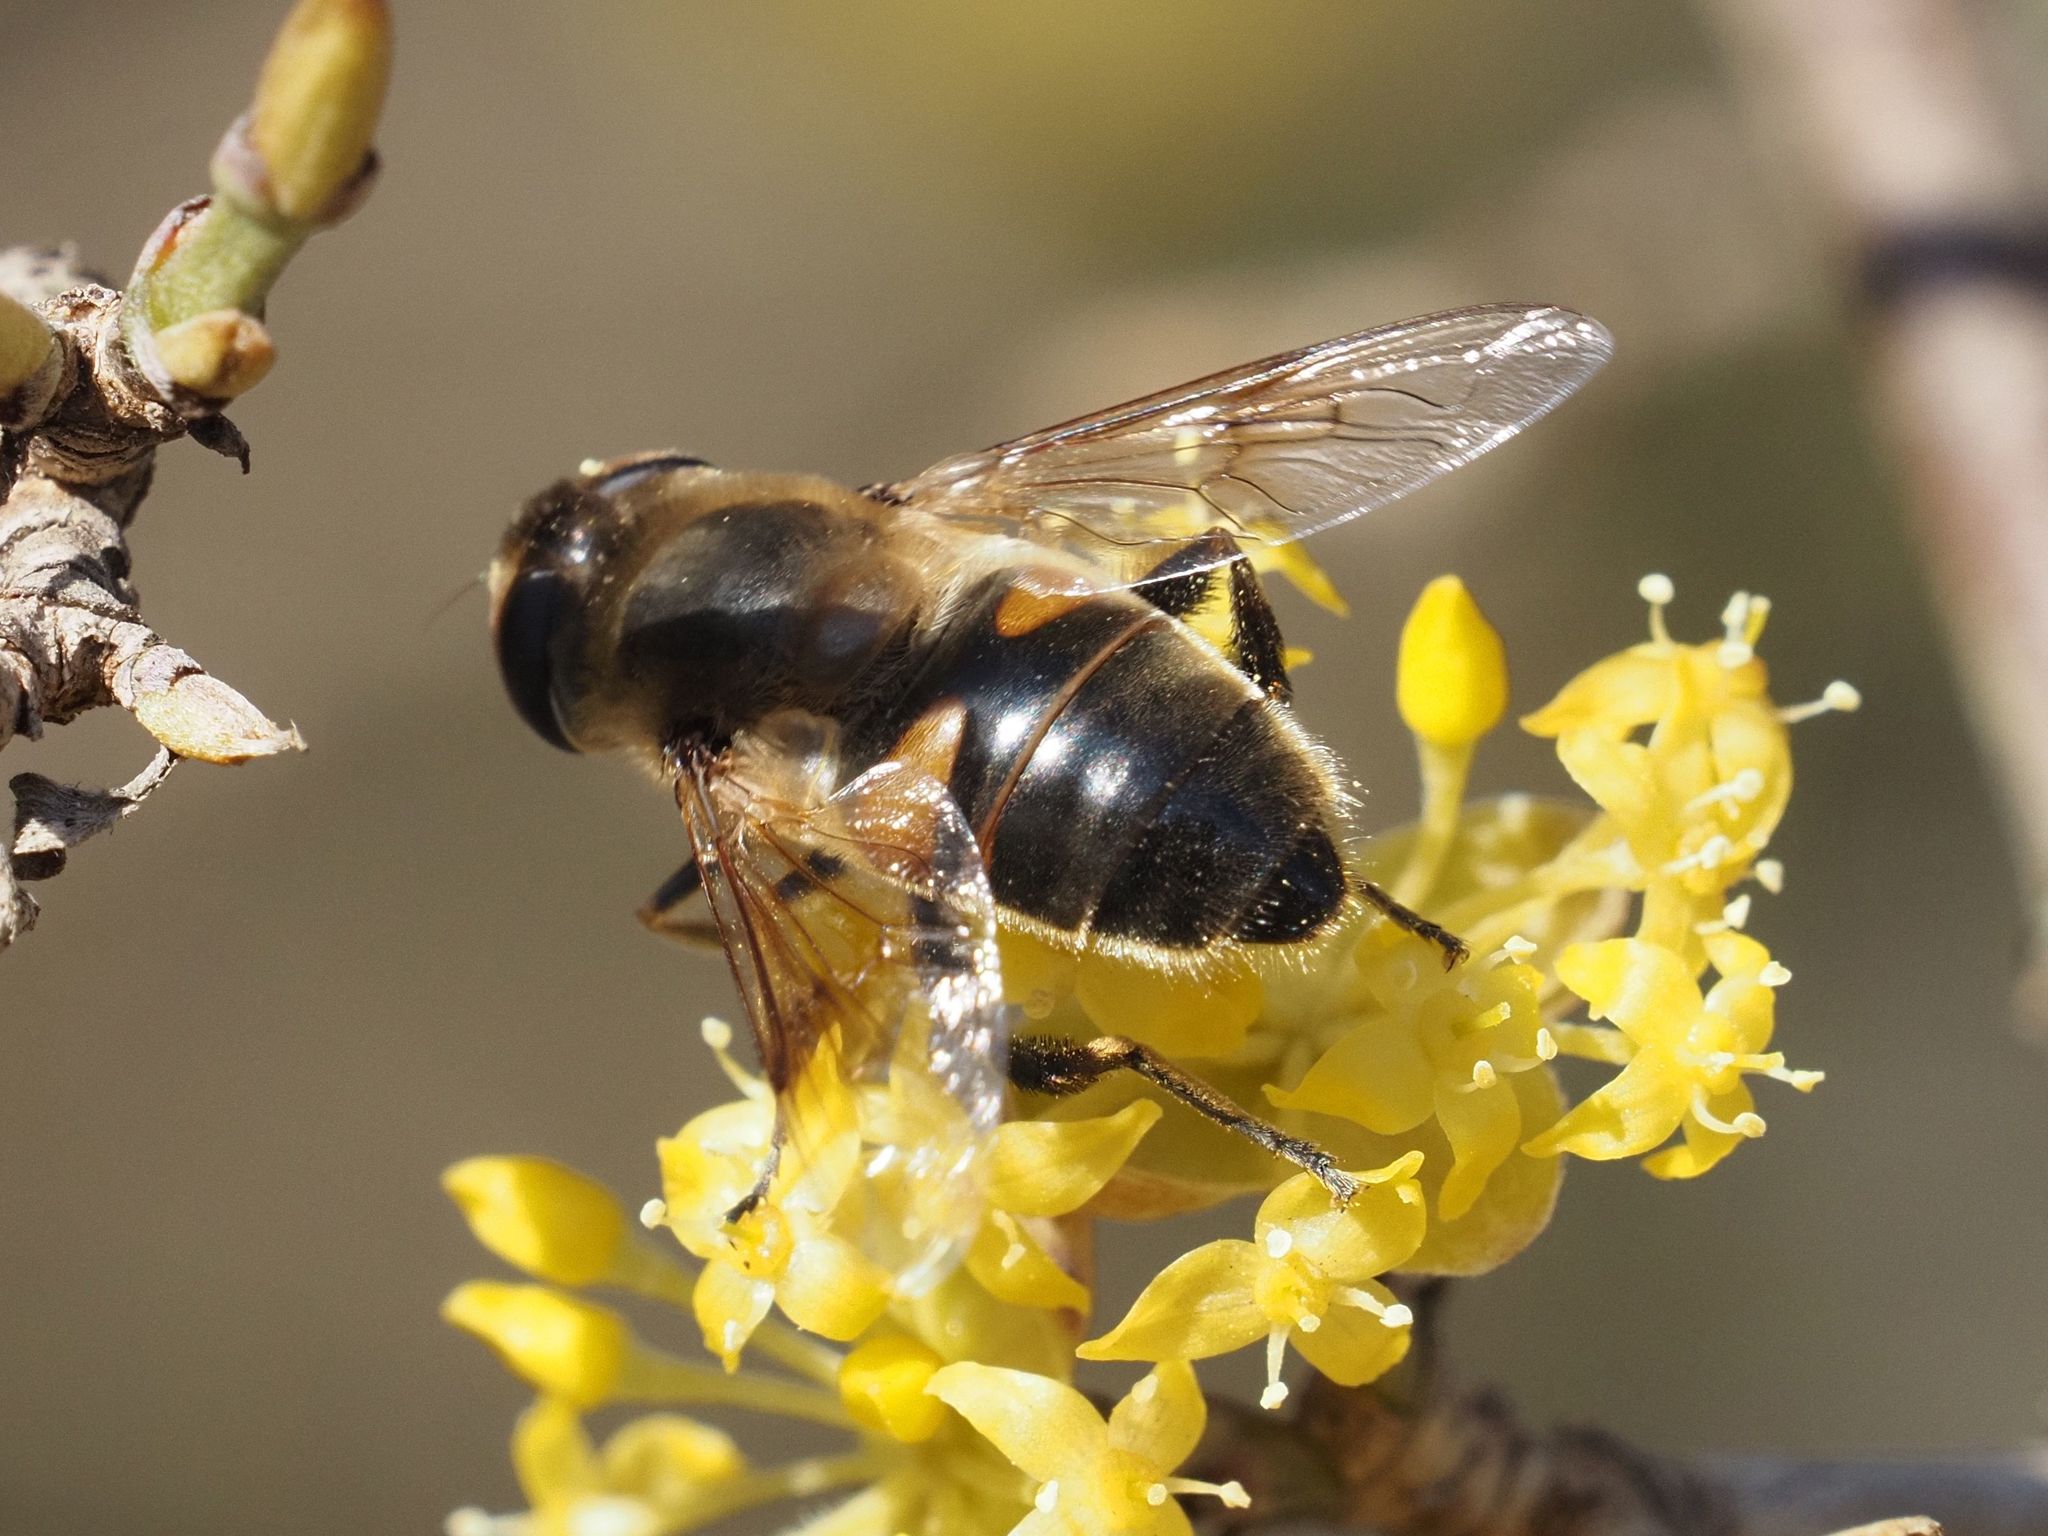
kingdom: Animalia
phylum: Arthropoda
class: Insecta
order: Diptera
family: Syrphidae
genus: Eristalis
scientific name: Eristalis tenax
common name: Drone fly
